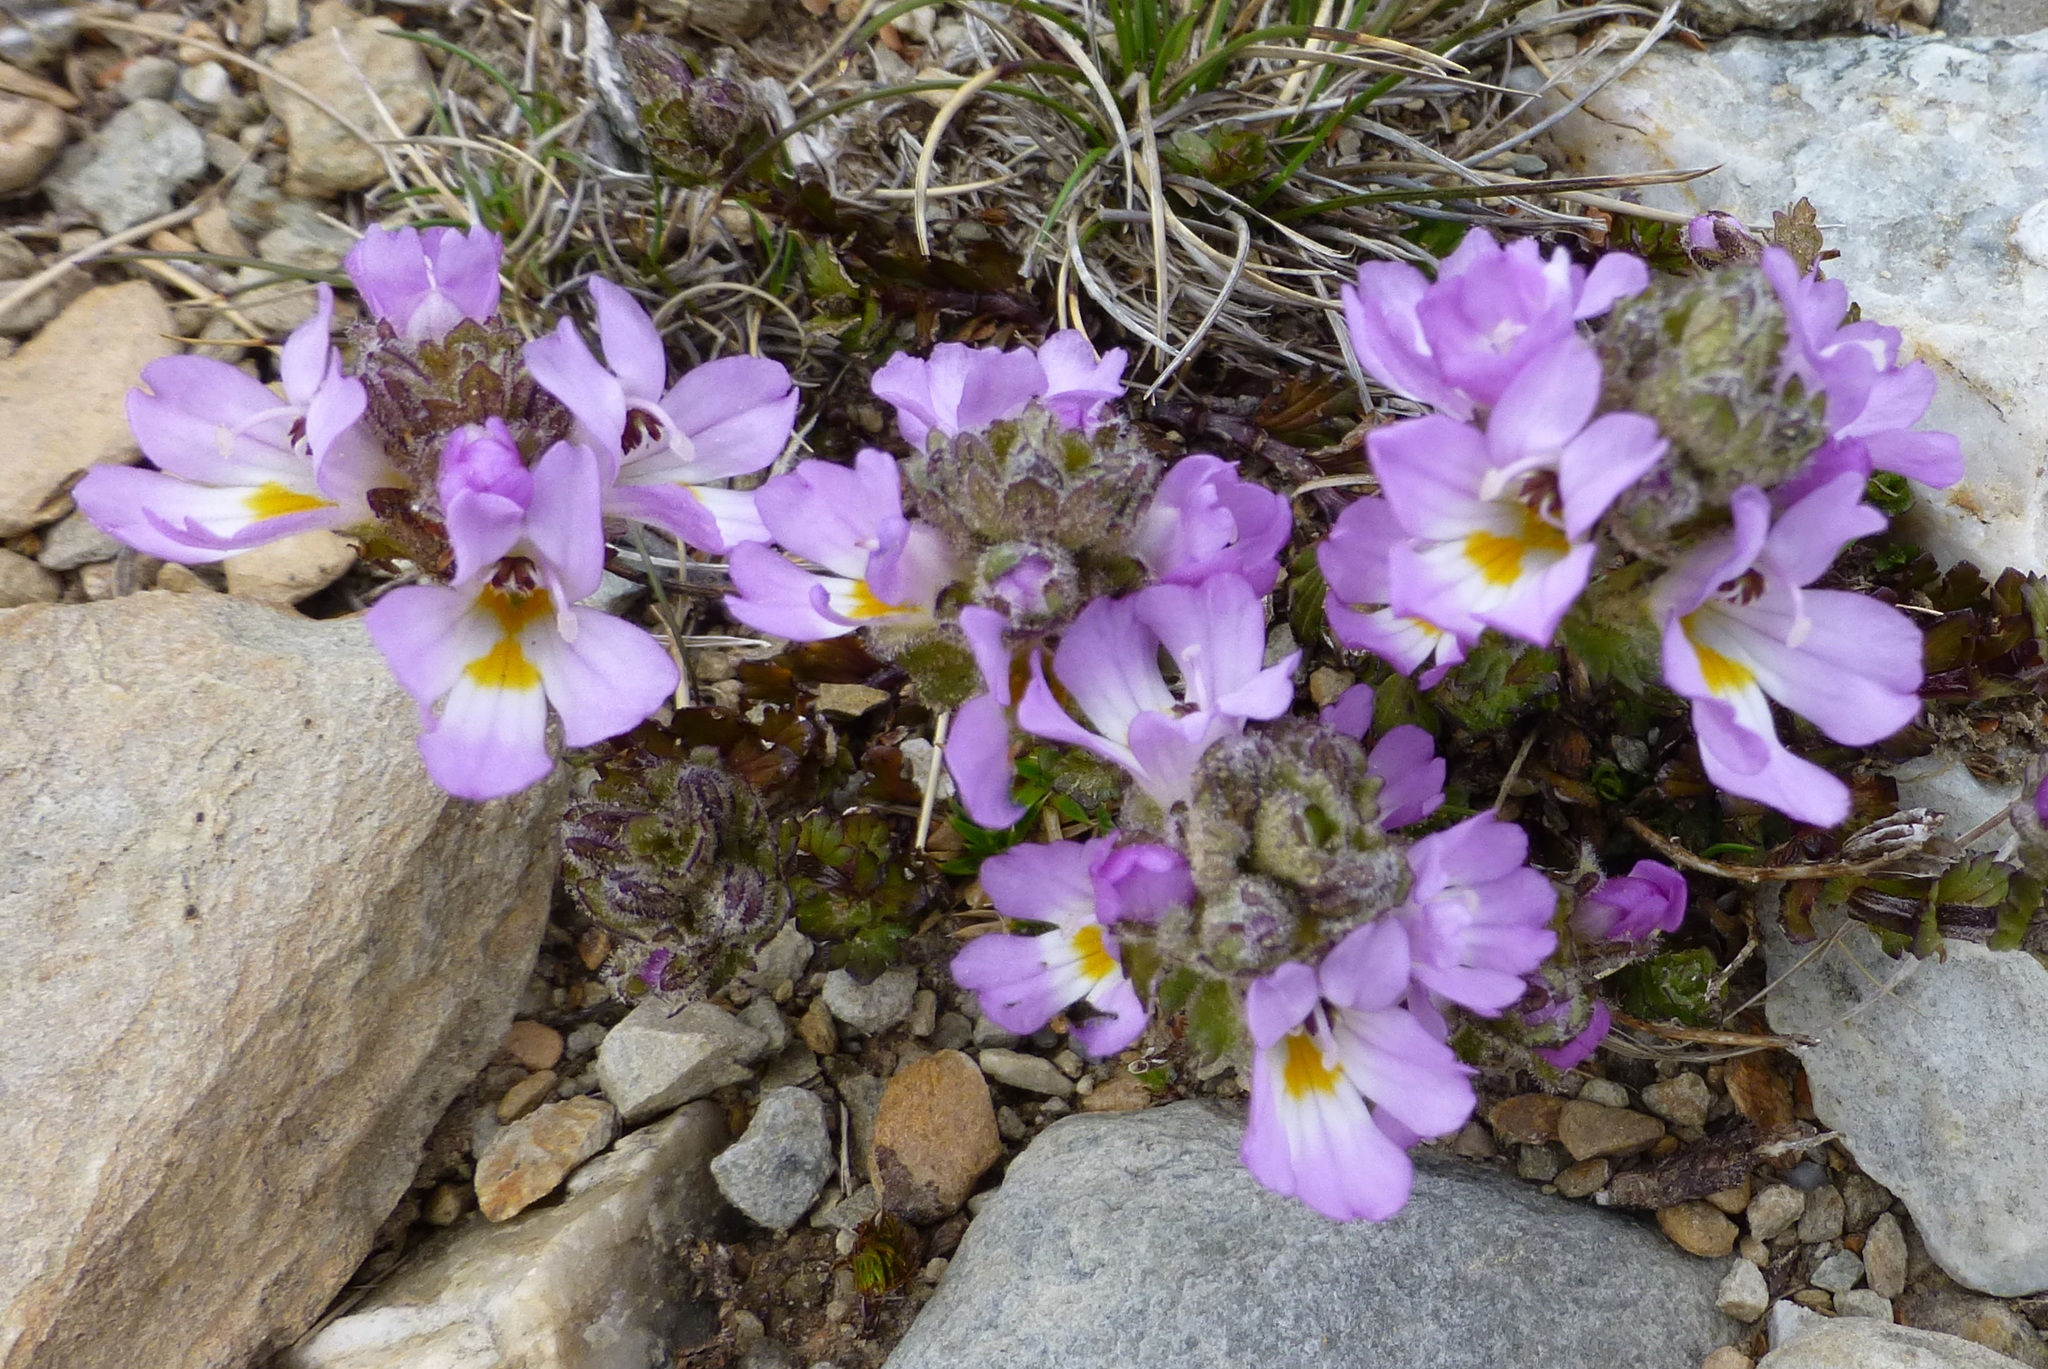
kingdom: Plantae
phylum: Tracheophyta
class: Magnoliopsida
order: Lamiales
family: Orobanchaceae
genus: Euphrasia
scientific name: Euphrasia collina
